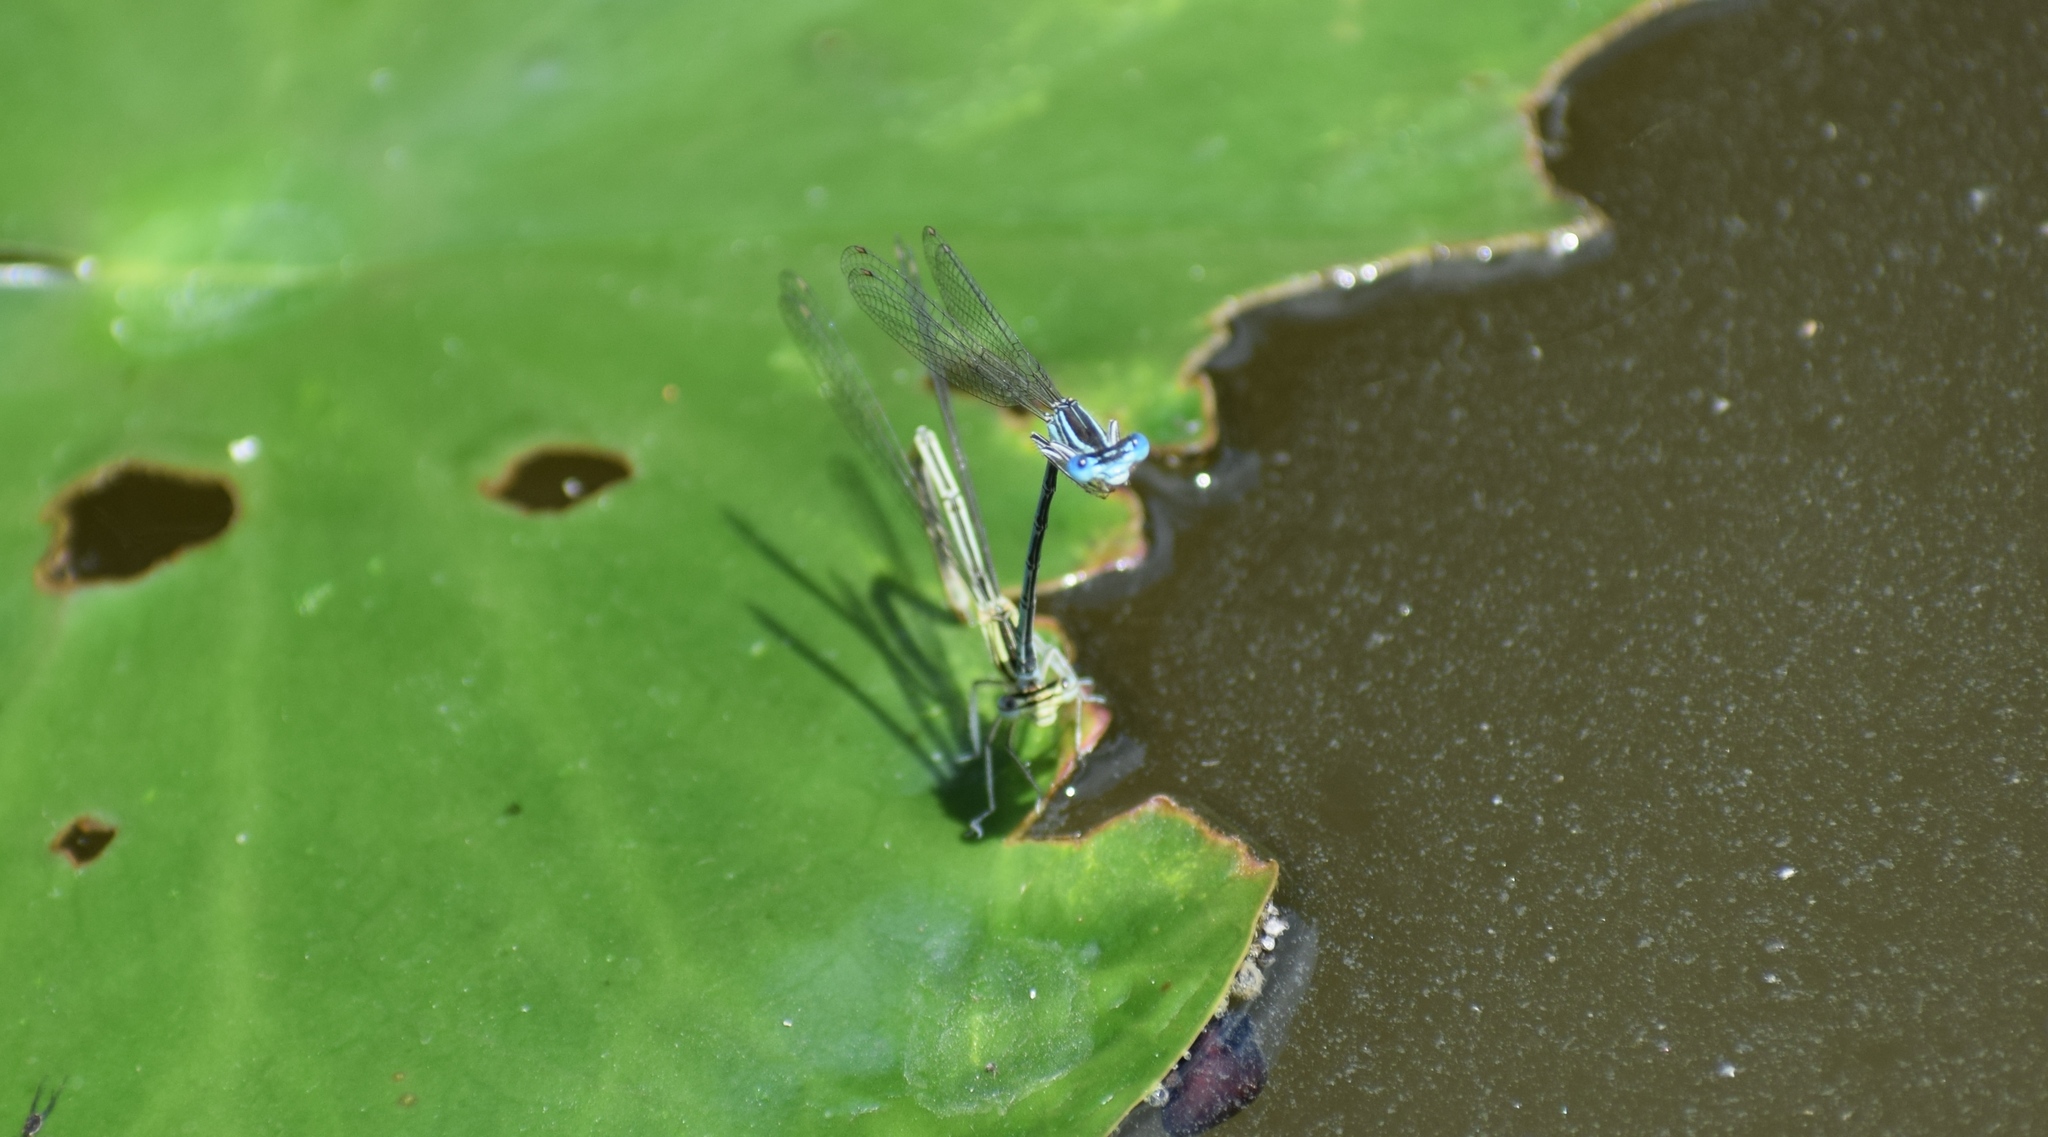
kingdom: Animalia
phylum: Arthropoda
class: Insecta
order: Odonata
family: Platycnemididae
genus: Platycnemis
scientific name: Platycnemis pennipes
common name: White-legged damselfly
